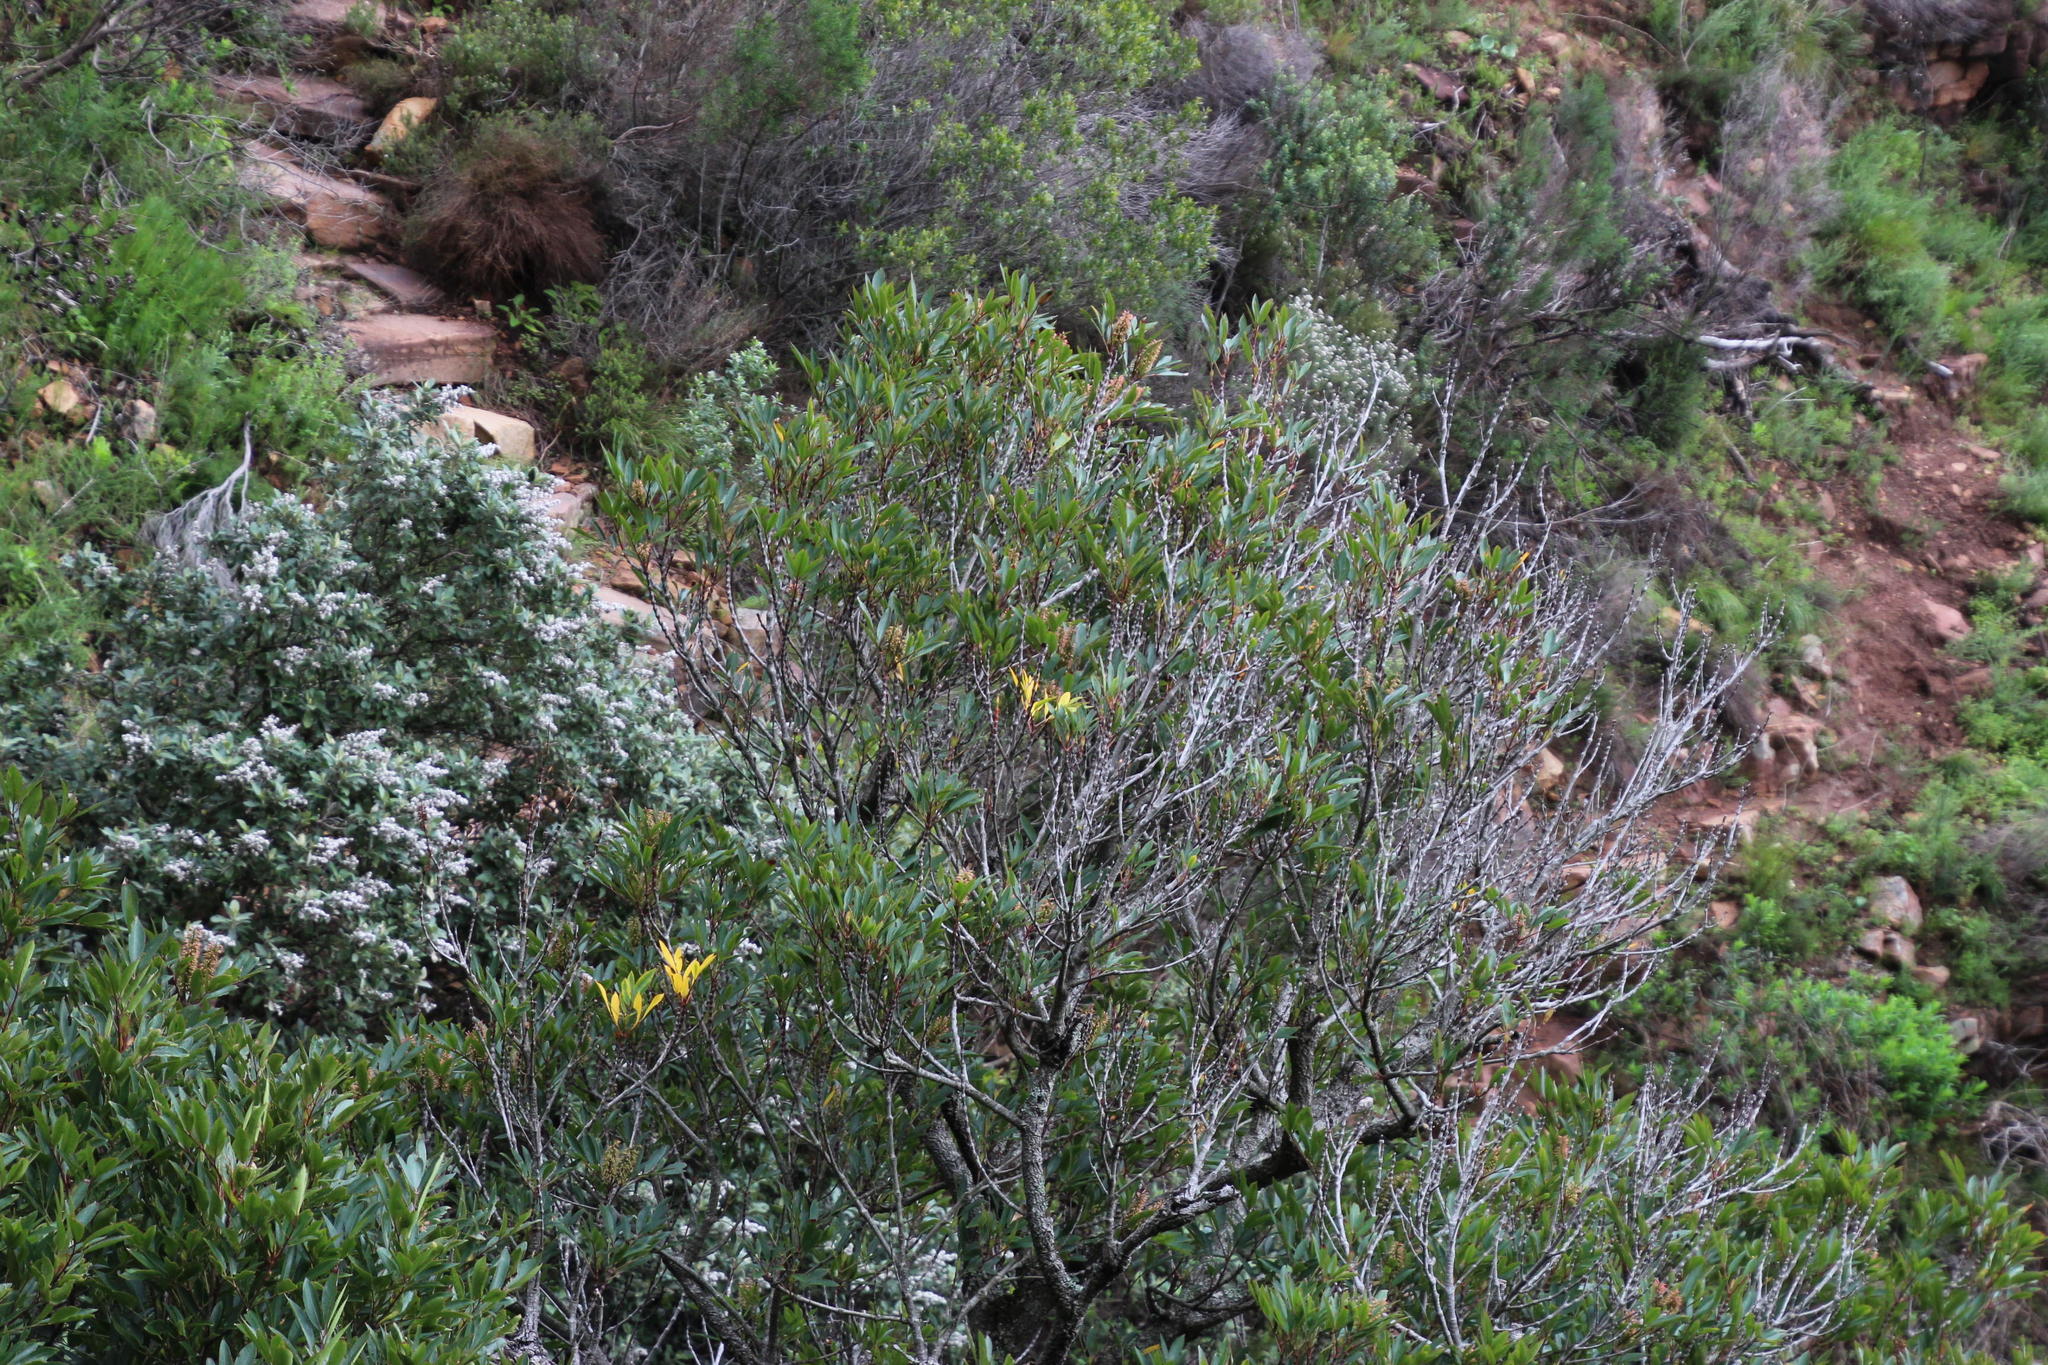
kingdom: Plantae
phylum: Tracheophyta
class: Magnoliopsida
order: Oxalidales
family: Cunoniaceae
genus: Cunonia
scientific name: Cunonia capensis
